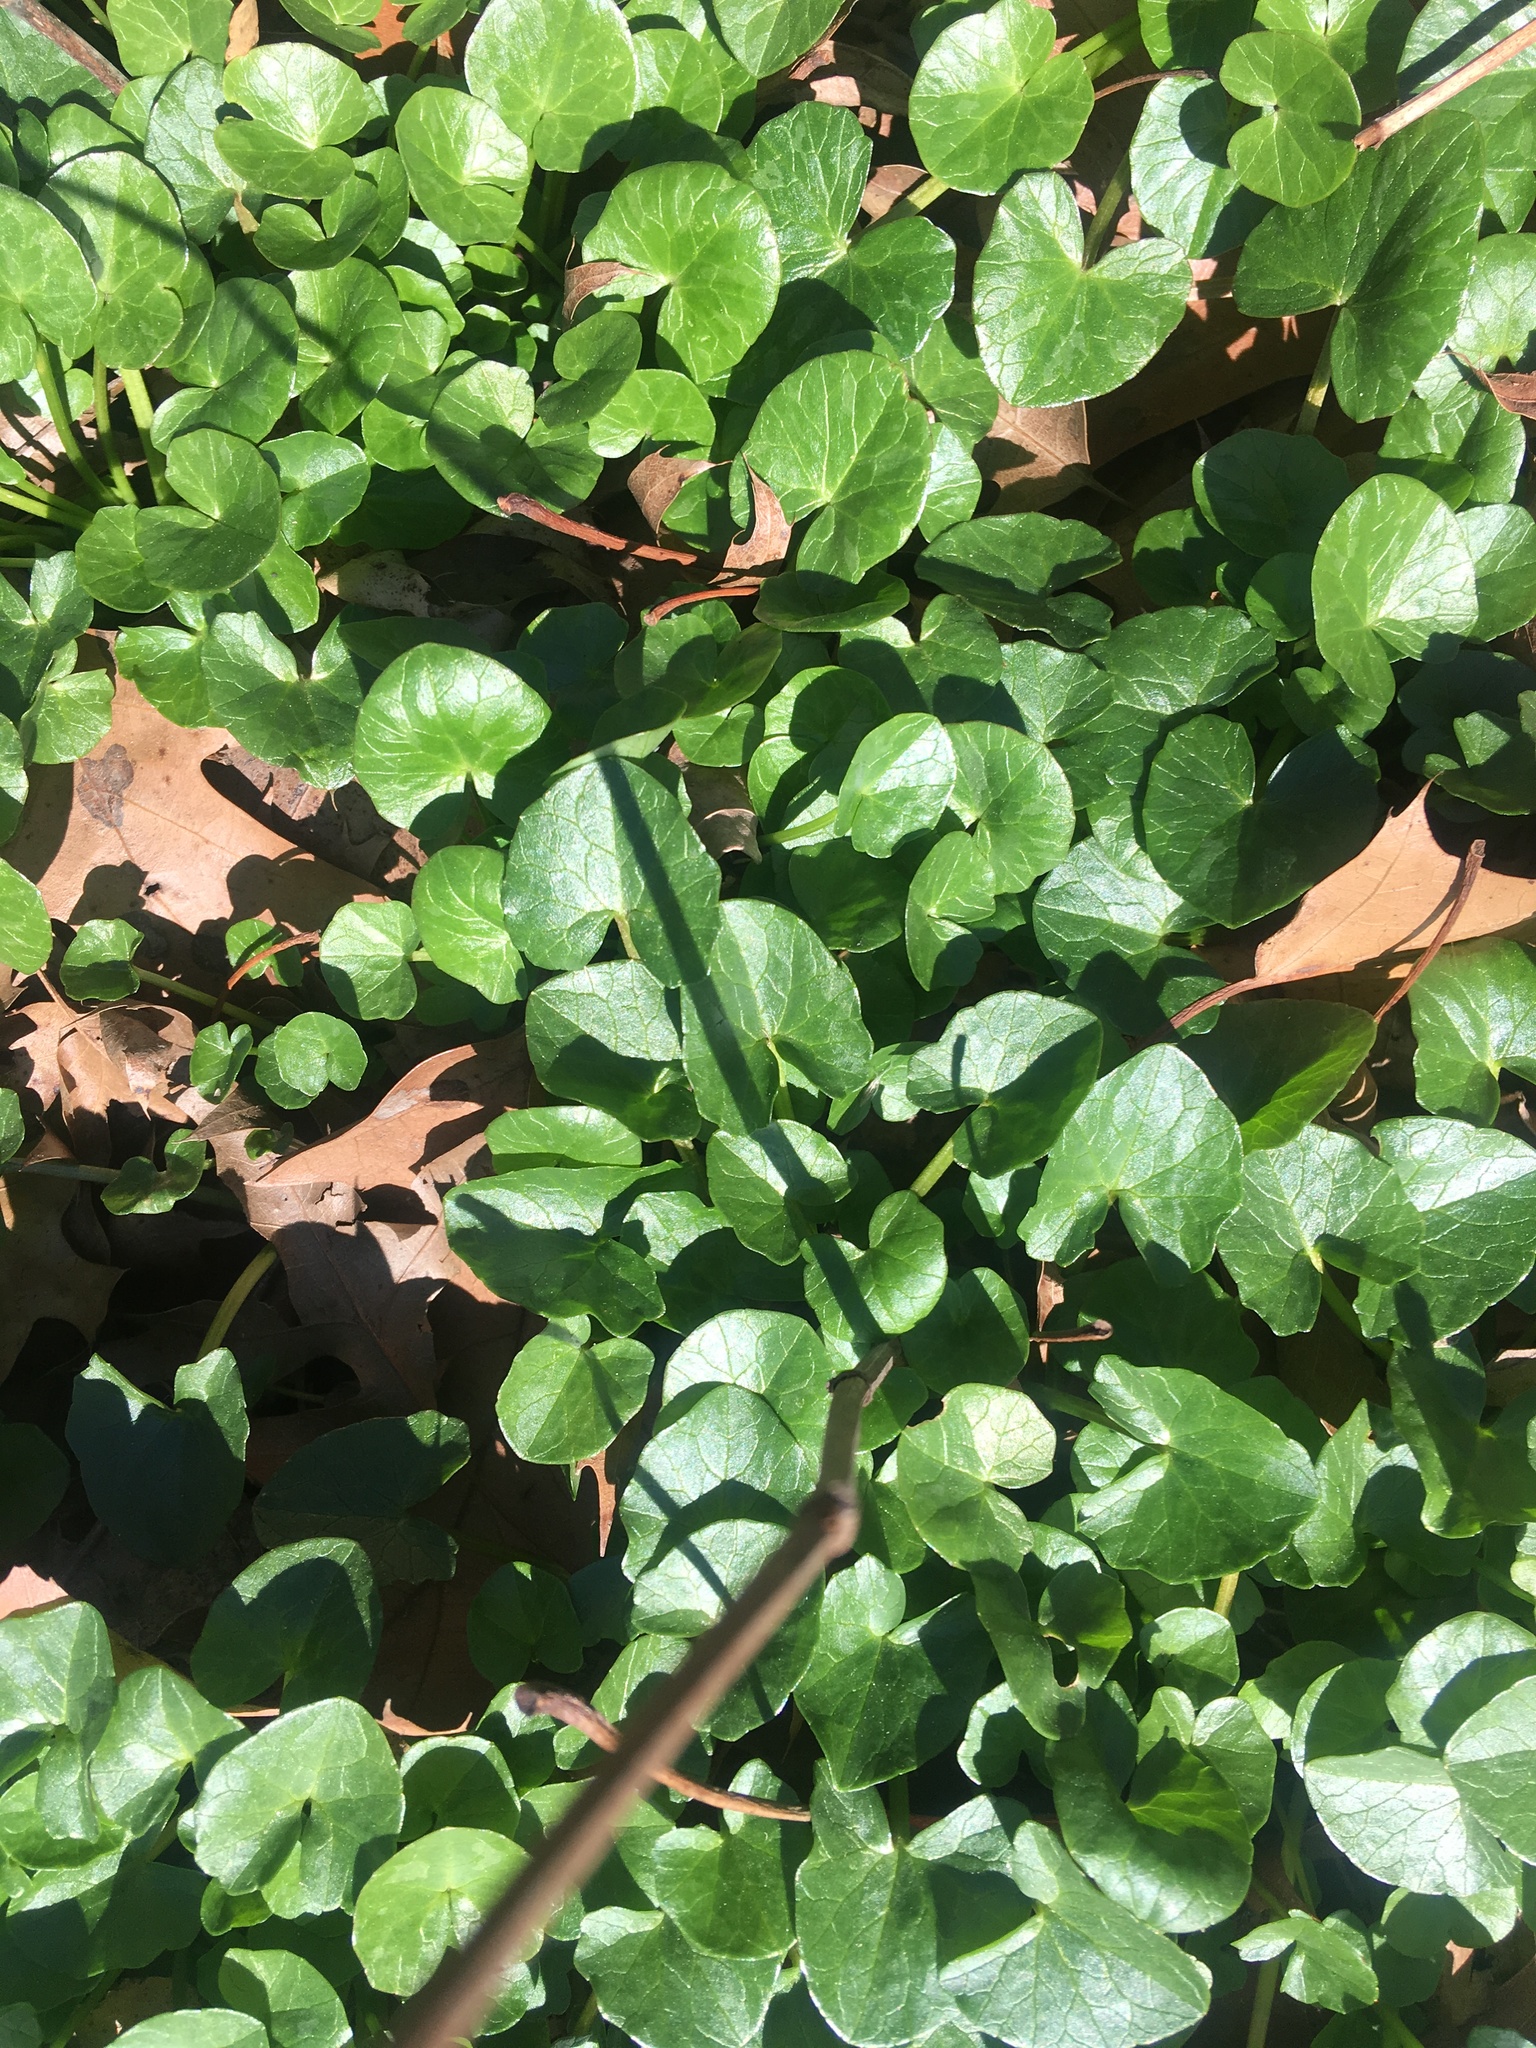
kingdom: Plantae
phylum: Tracheophyta
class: Magnoliopsida
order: Ranunculales
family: Ranunculaceae
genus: Ficaria
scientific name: Ficaria verna
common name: Lesser celandine
